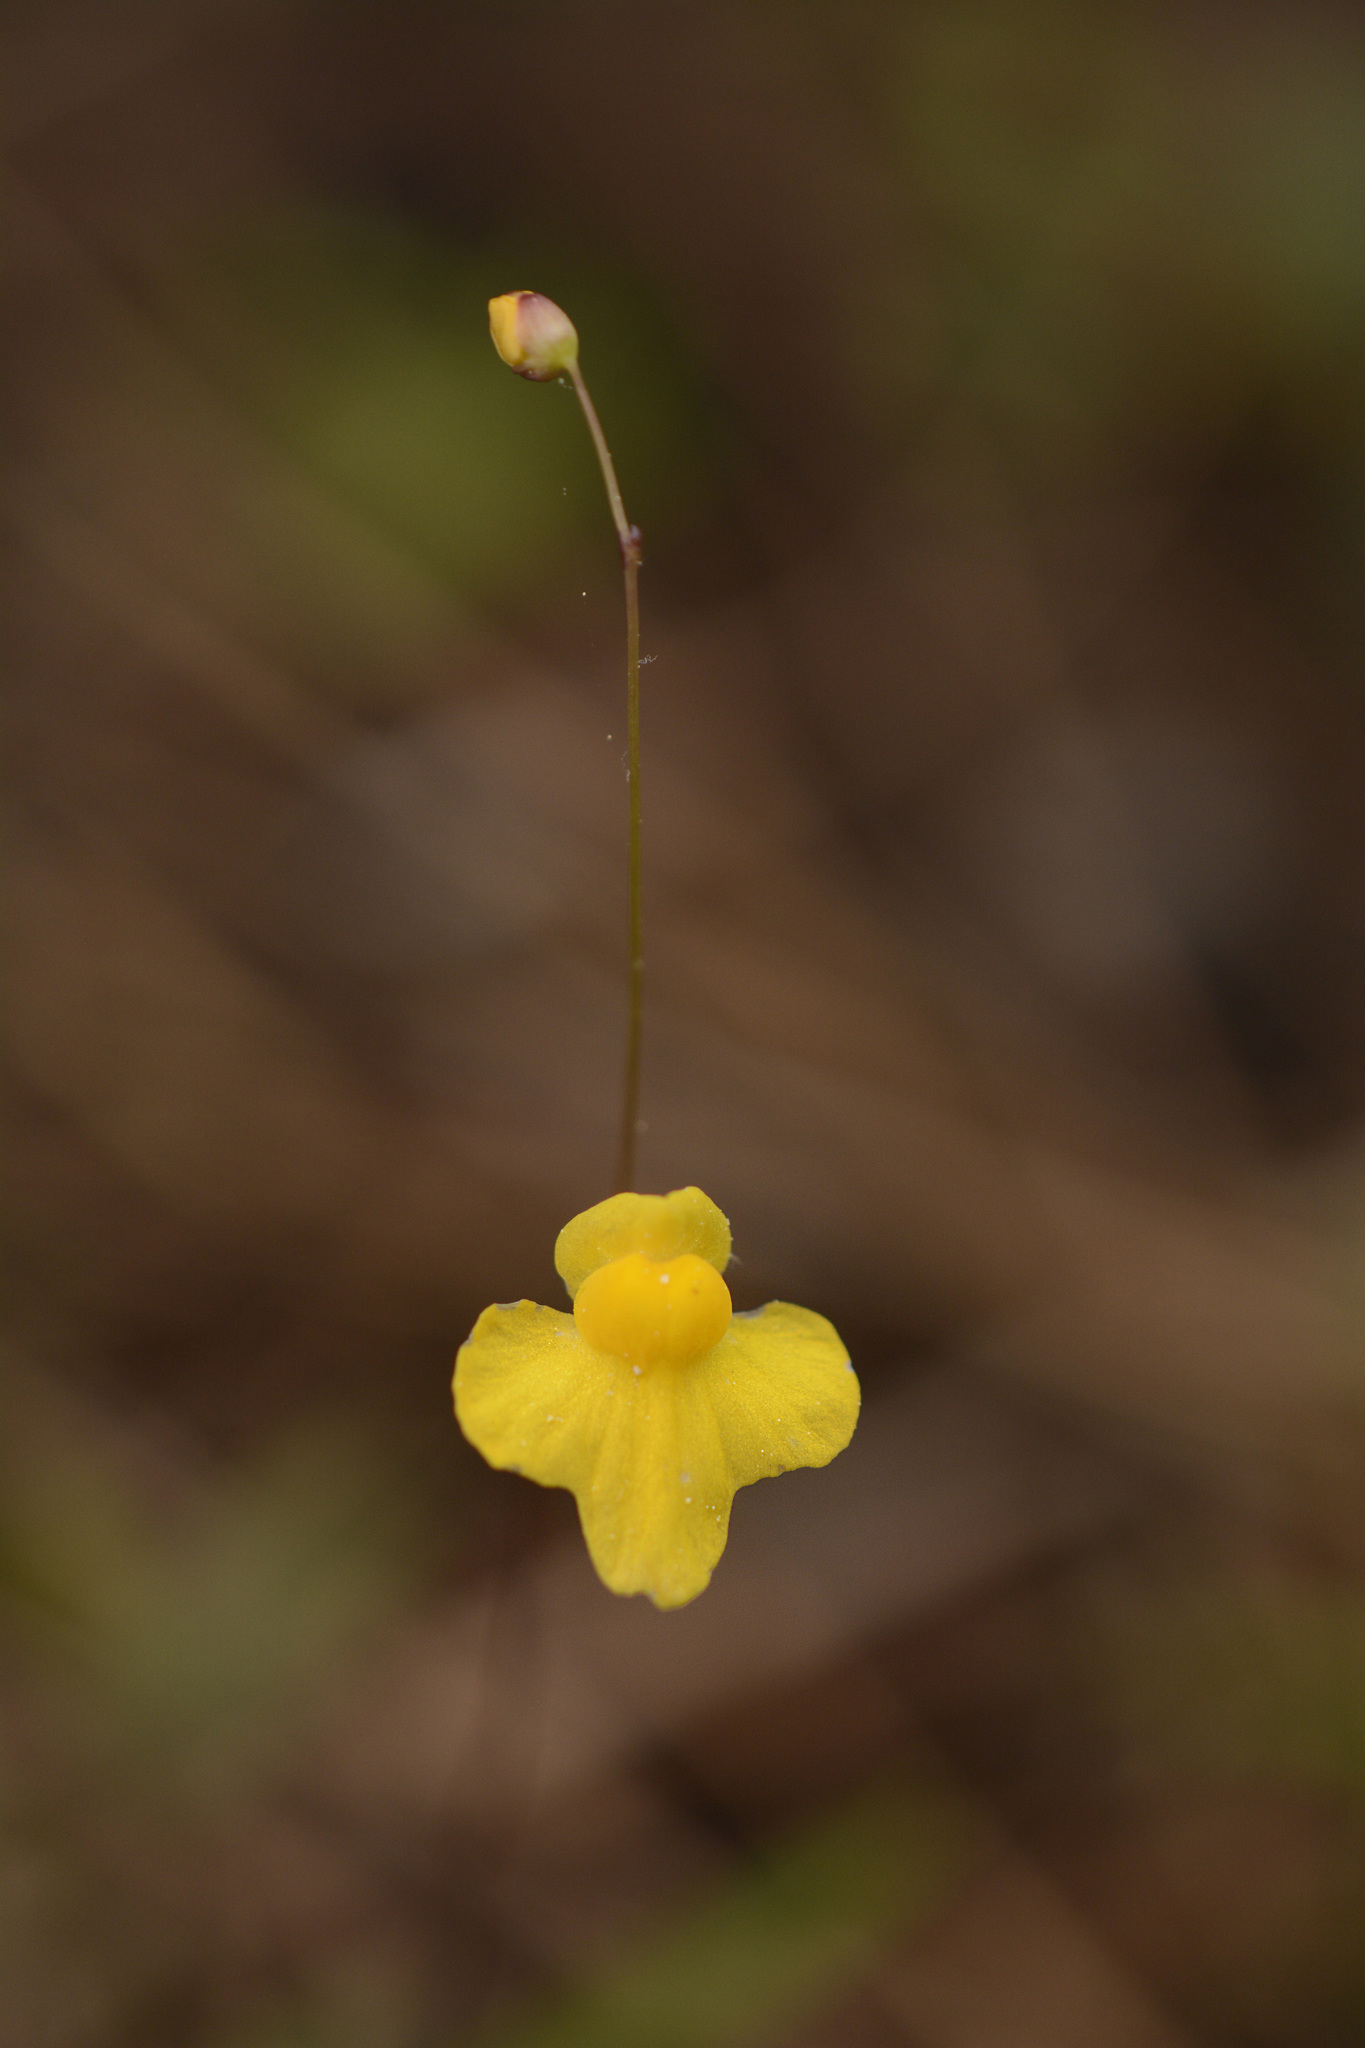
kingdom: Plantae
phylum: Tracheophyta
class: Magnoliopsida
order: Lamiales
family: Lentibulariaceae
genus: Utricularia
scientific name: Utricularia subulata
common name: Tiny bladderwort
